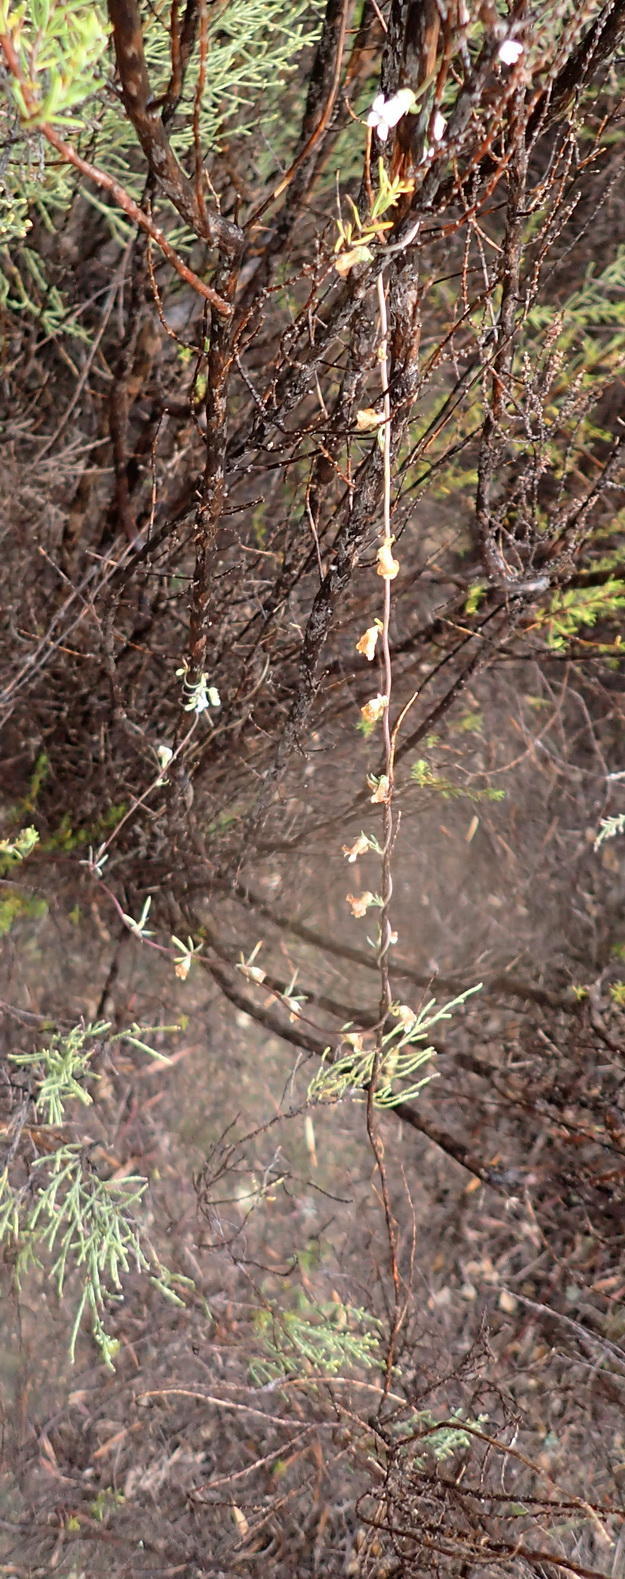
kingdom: Plantae
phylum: Tracheophyta
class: Magnoliopsida
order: Asterales
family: Campanulaceae
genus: Cyphia
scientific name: Cyphia digitata
